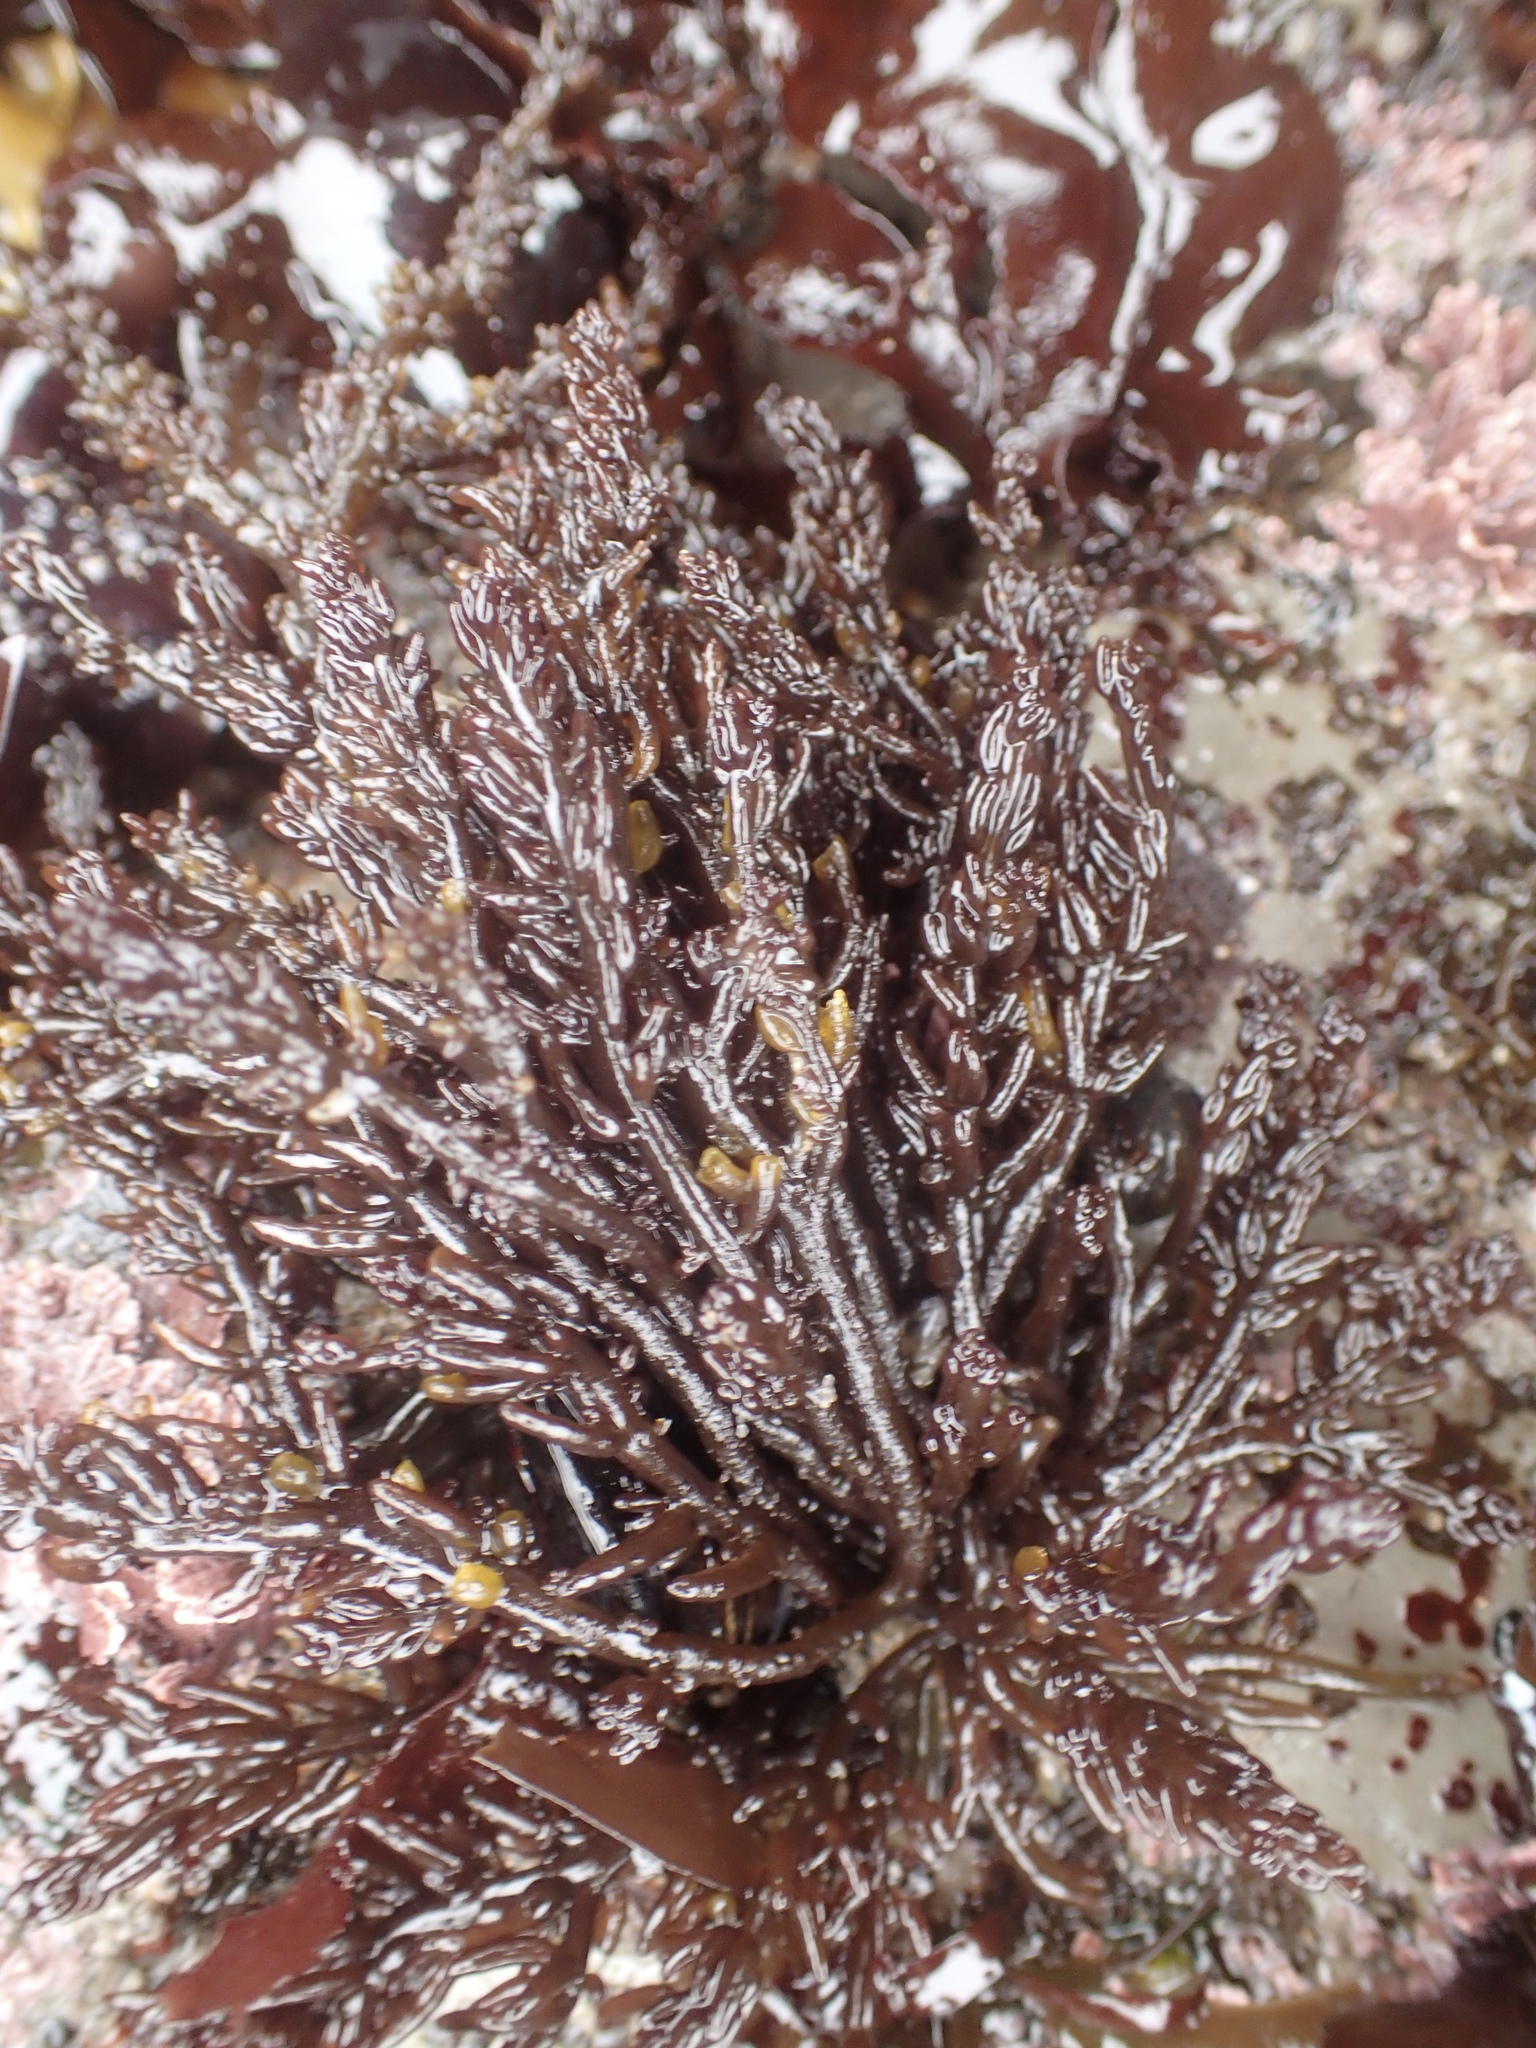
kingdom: Plantae
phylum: Rhodophyta
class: Florideophyceae
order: Rhodymeniales
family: Champiaceae
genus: Neogastroclonium
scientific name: Neogastroclonium subarticulatum
